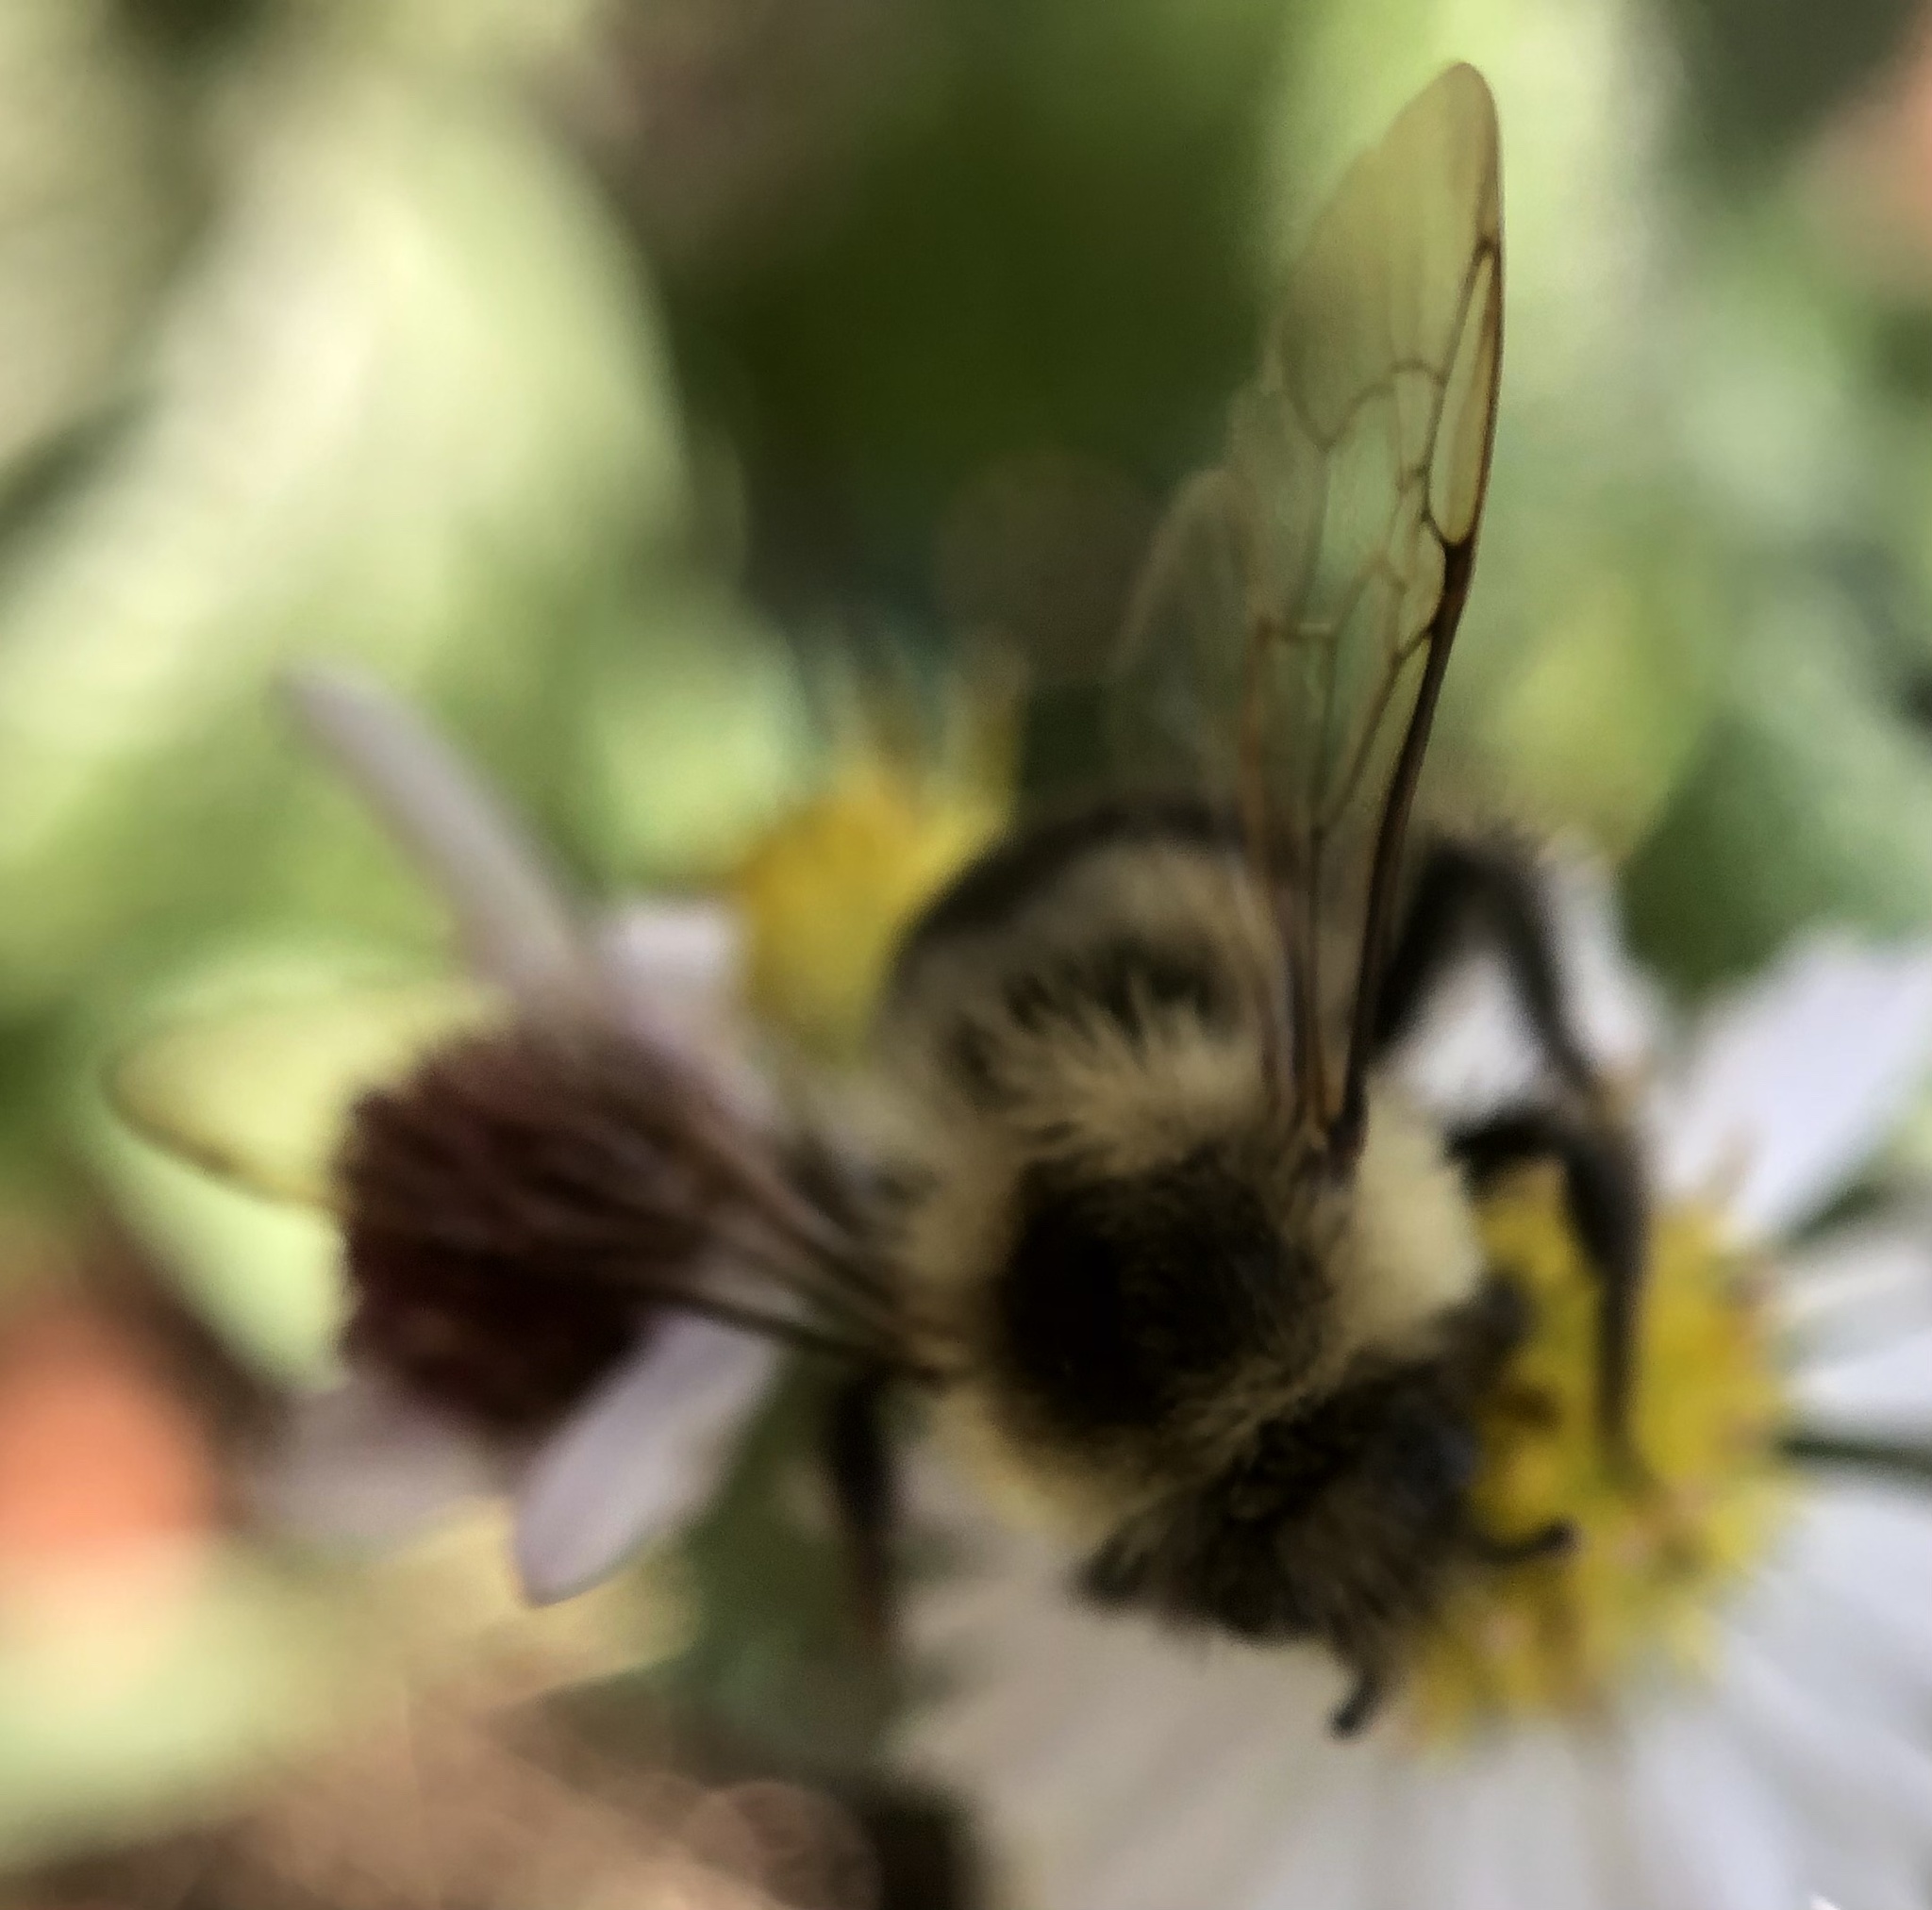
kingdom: Animalia
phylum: Arthropoda
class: Insecta
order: Hymenoptera
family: Apidae
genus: Bombus
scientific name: Bombus impatiens
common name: Common eastern bumble bee
